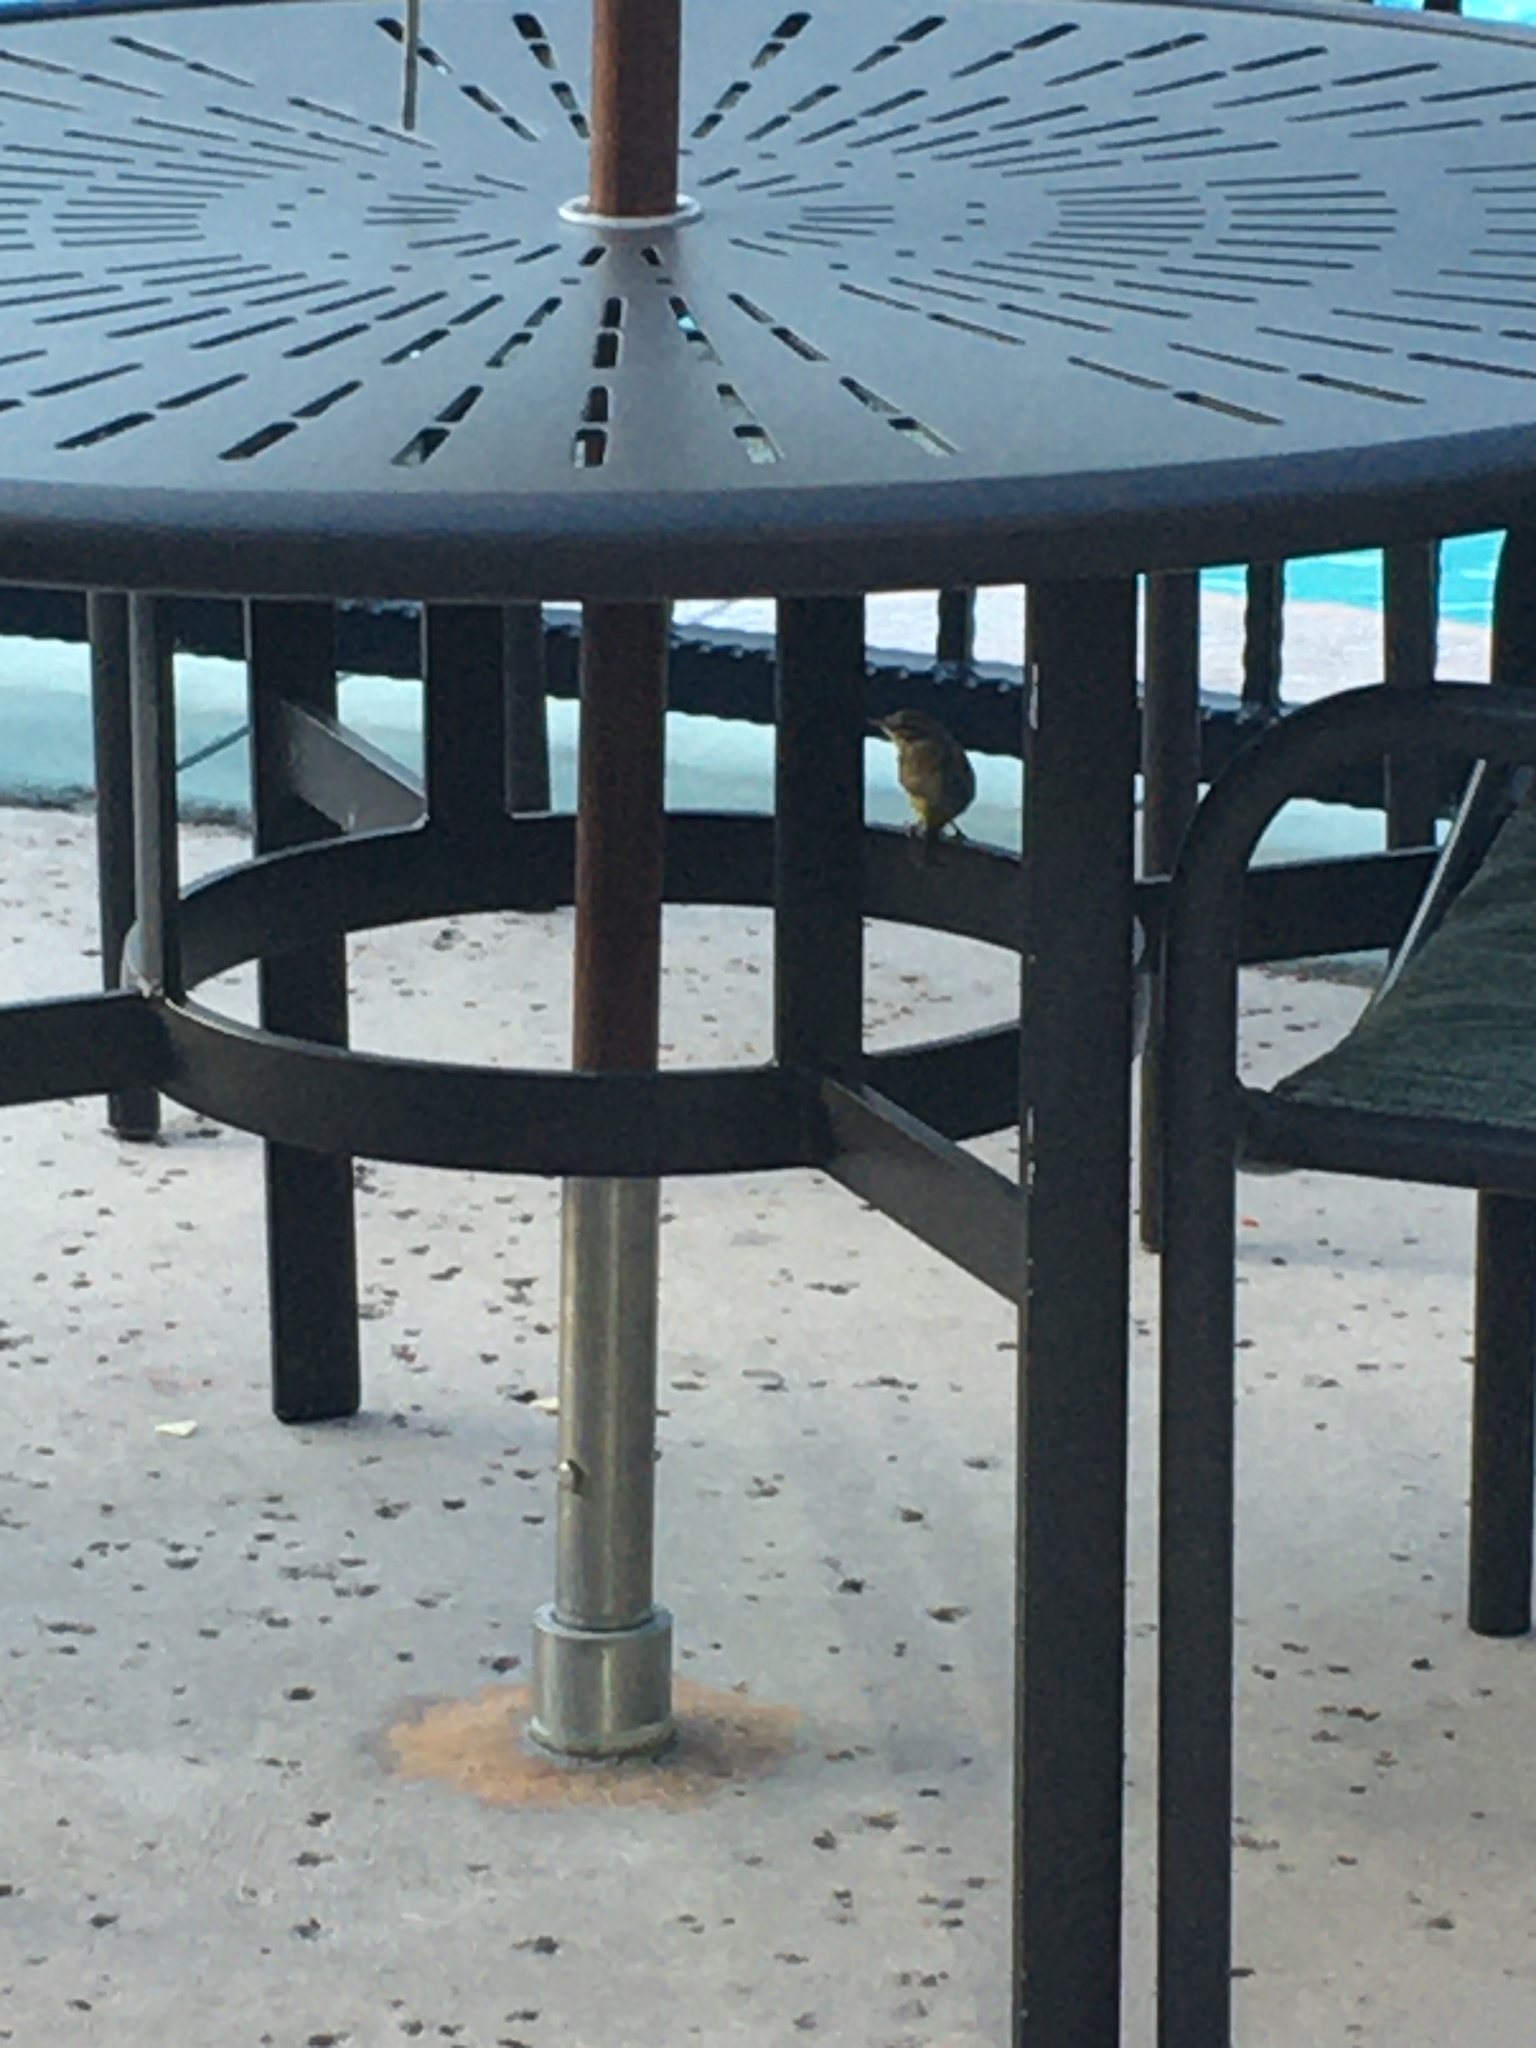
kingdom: Animalia
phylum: Chordata
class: Aves
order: Passeriformes
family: Parulidae
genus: Setophaga
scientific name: Setophaga palmarum
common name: Palm warbler
